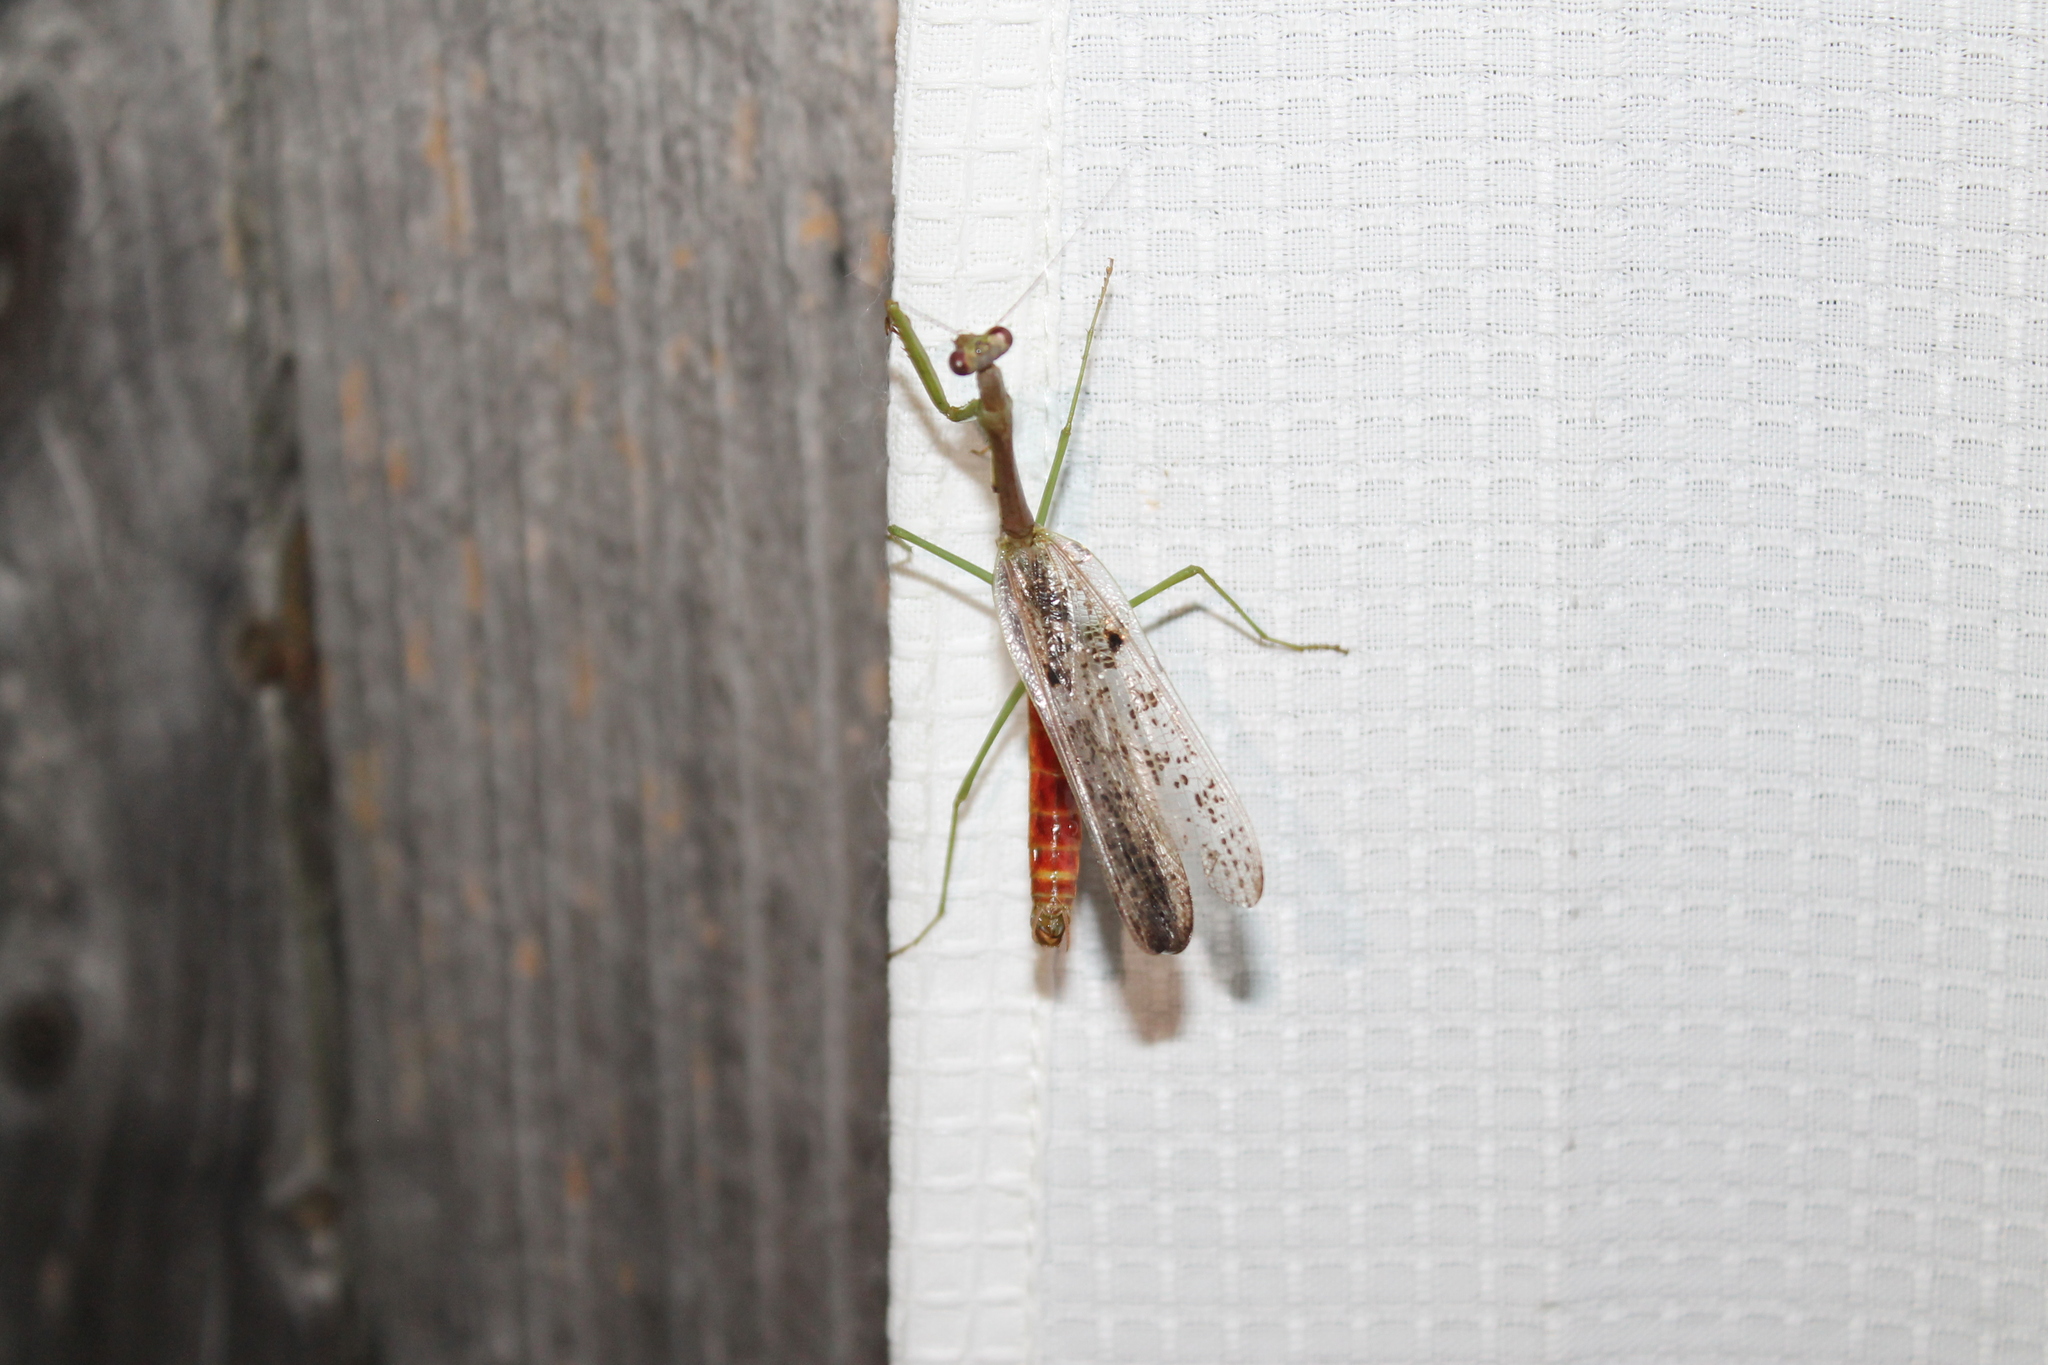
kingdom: Animalia
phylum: Arthropoda
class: Insecta
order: Mantodea
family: Mantidae
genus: Stagmomantis
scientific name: Stagmomantis carolina
